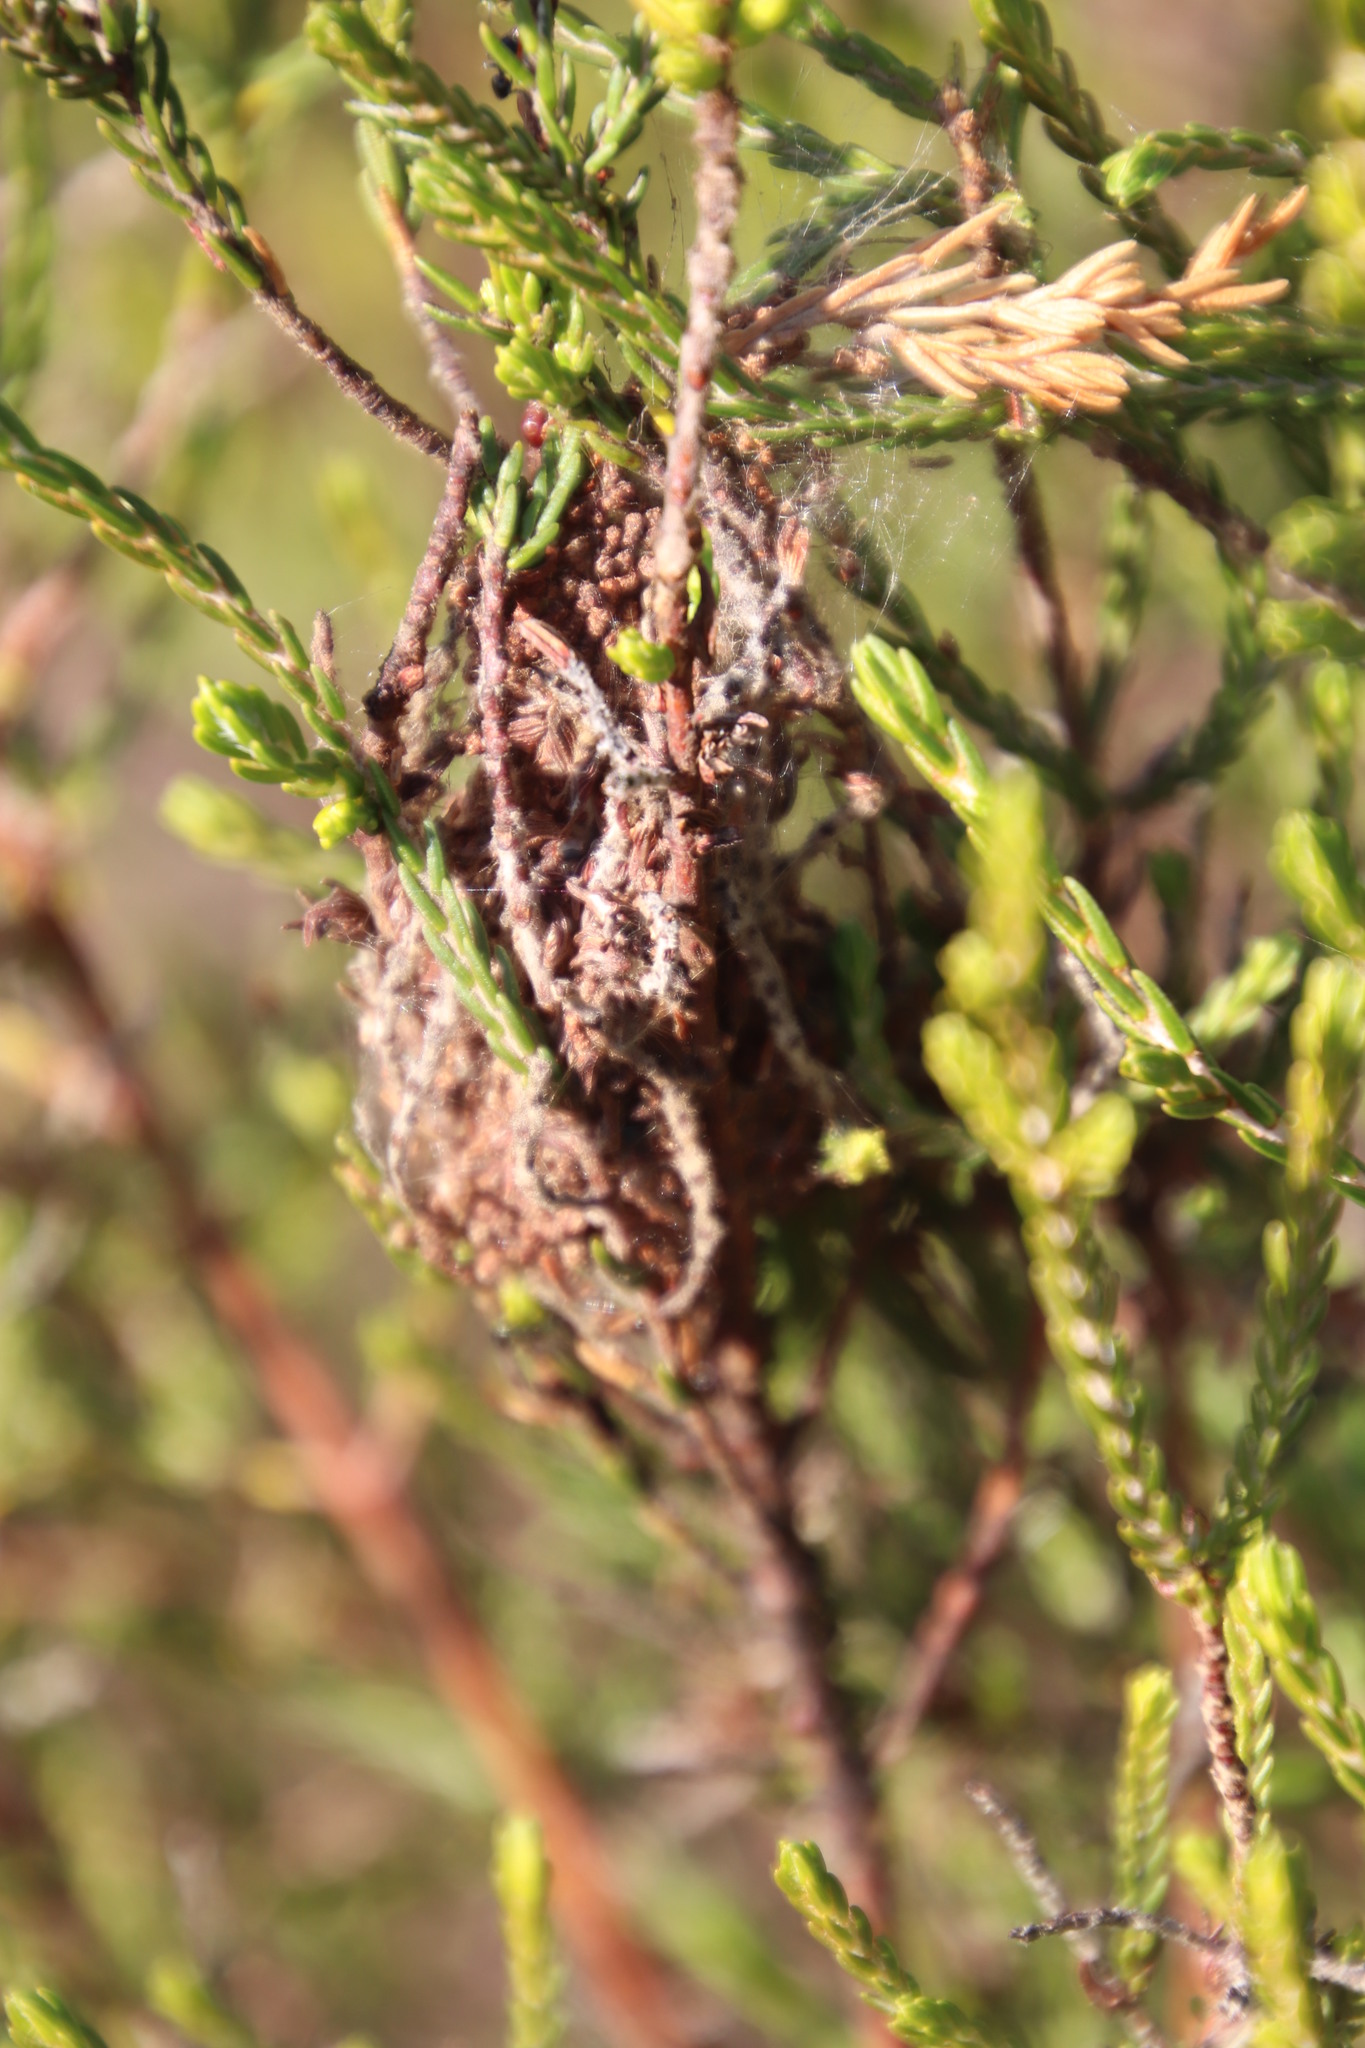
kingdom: Plantae
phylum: Tracheophyta
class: Magnoliopsida
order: Malvales
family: Thymelaeaceae
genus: Passerina
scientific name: Passerina corymbosa
